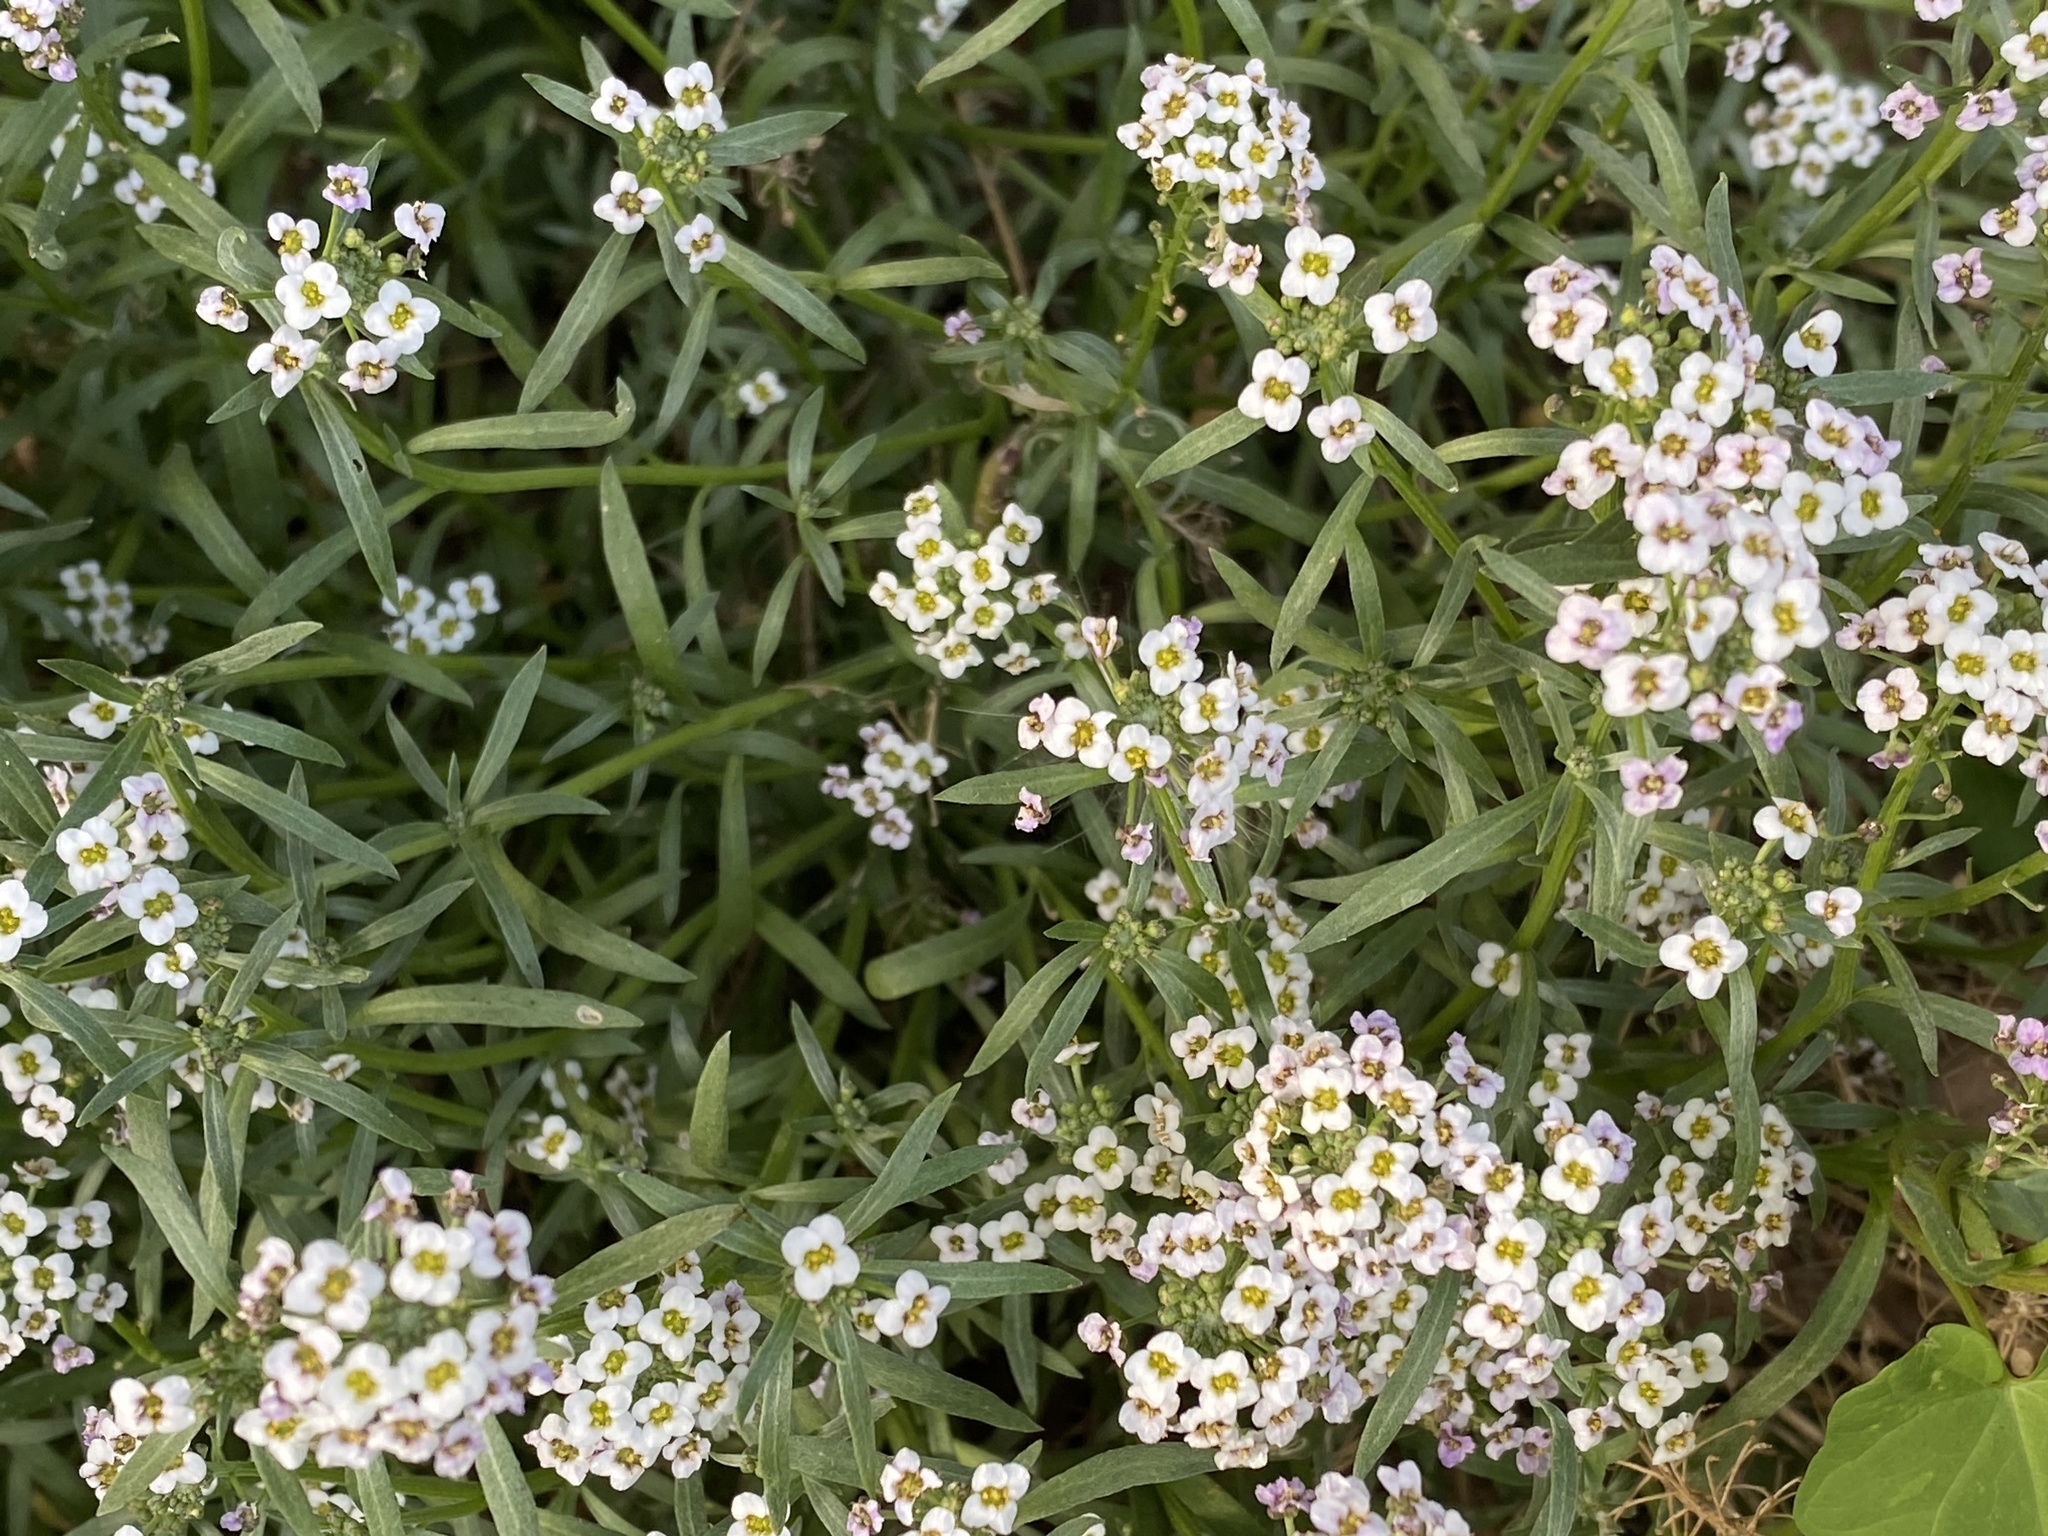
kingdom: Plantae
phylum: Tracheophyta
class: Magnoliopsida
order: Brassicales
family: Brassicaceae
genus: Lobularia
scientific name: Lobularia maritima
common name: Sweet alison
